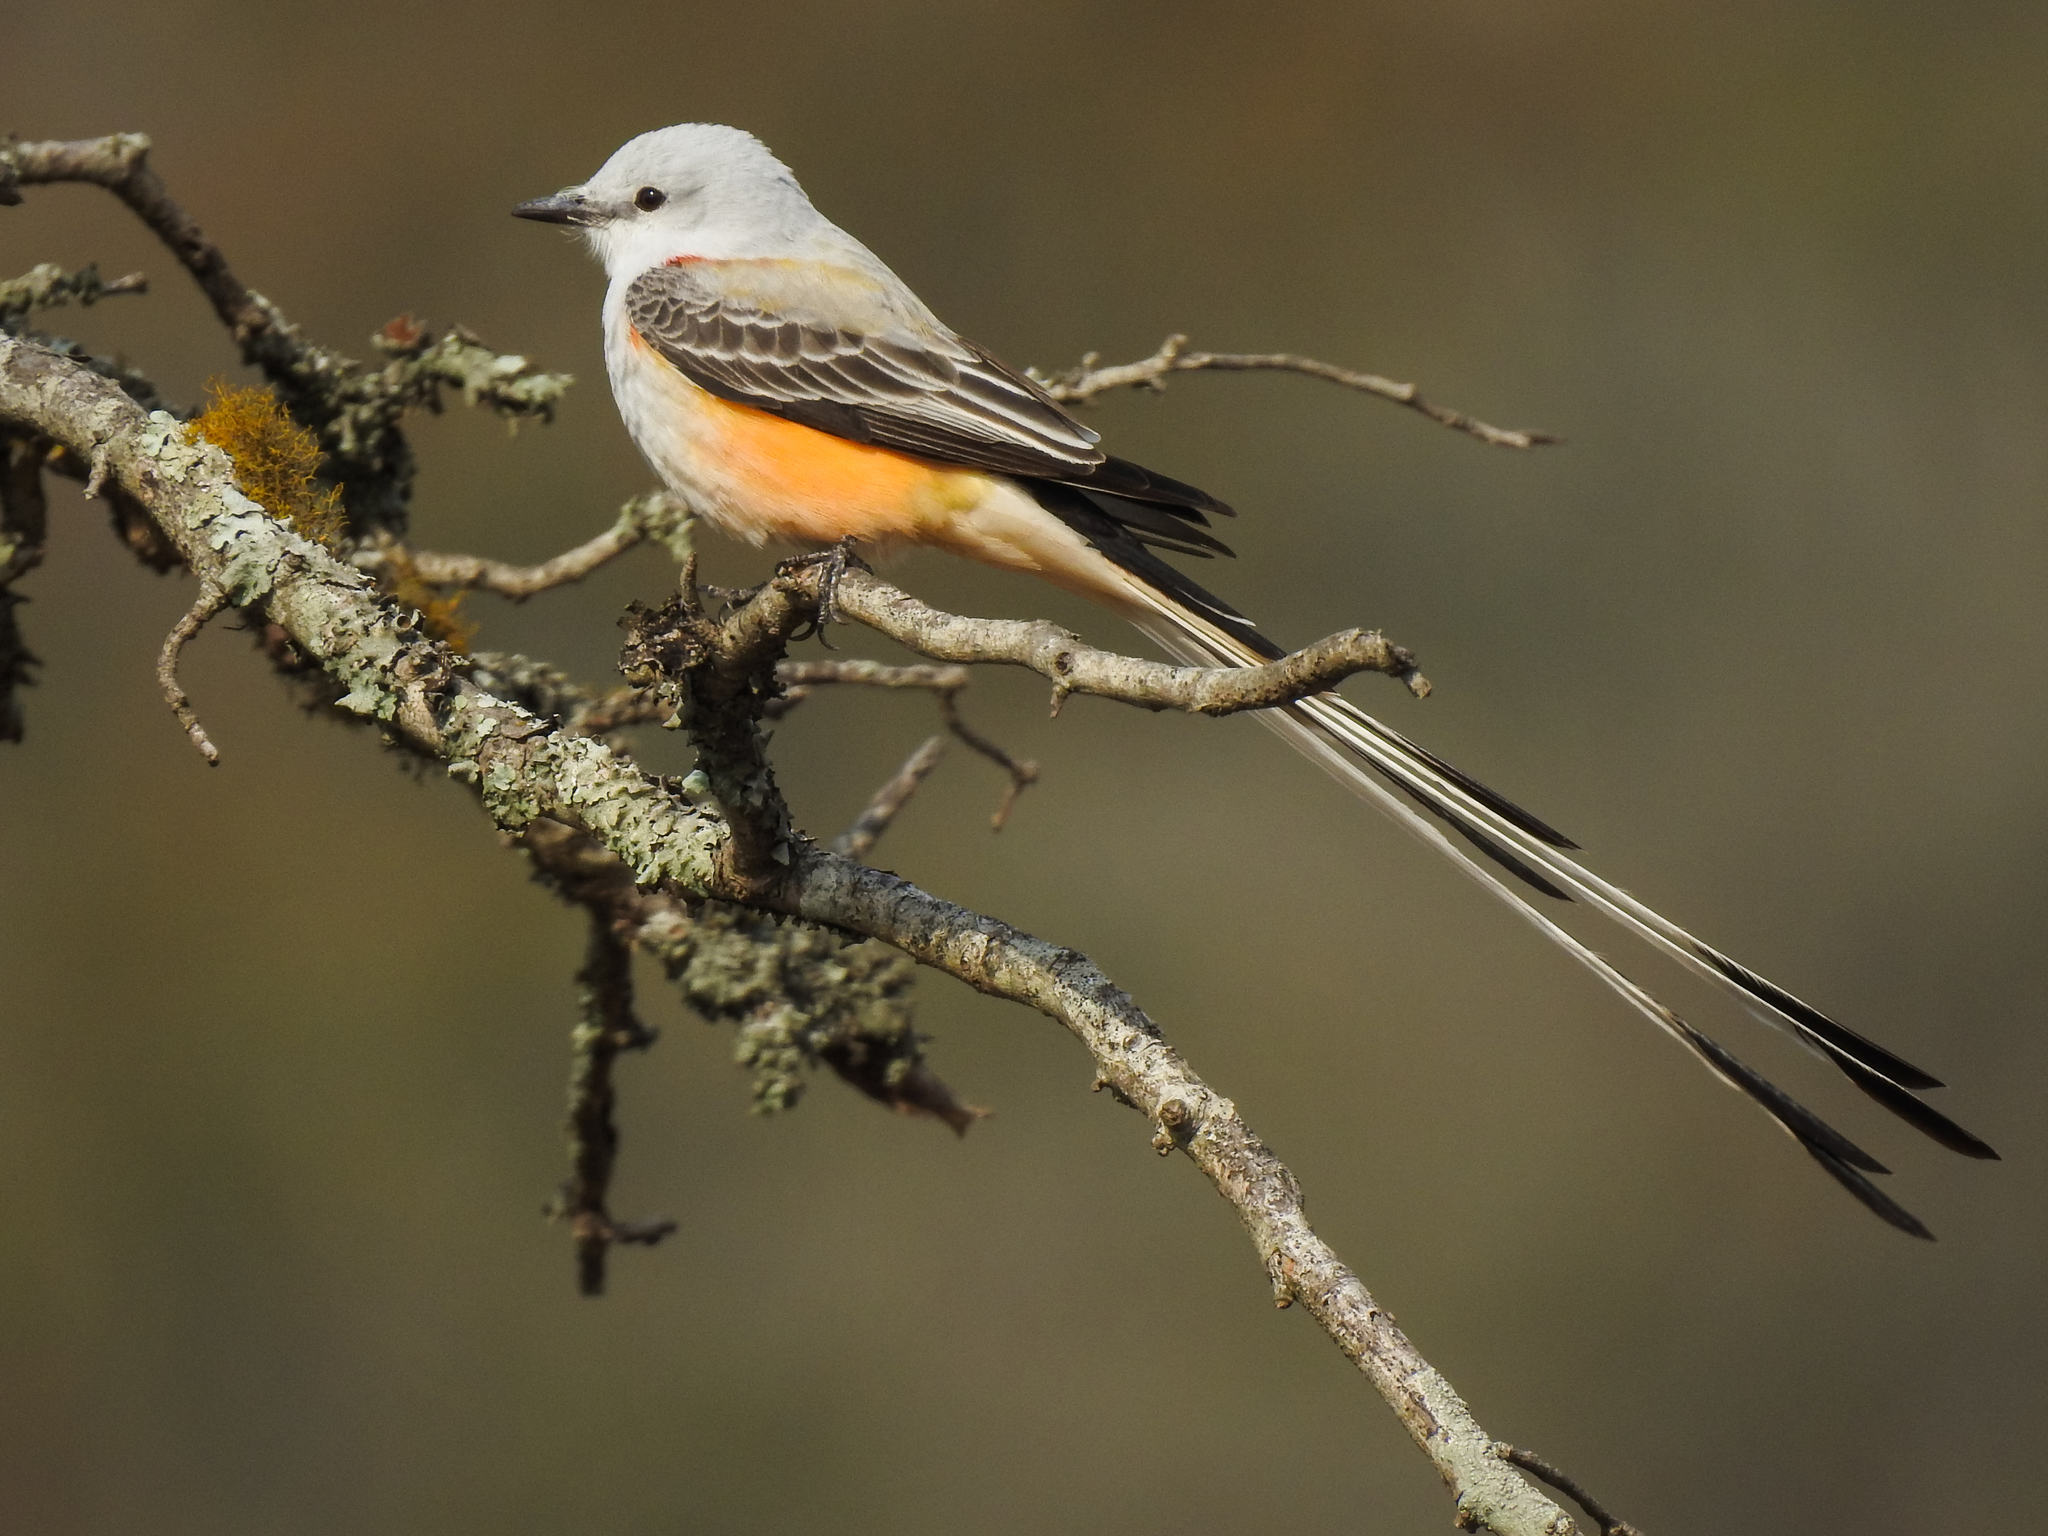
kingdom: Animalia
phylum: Chordata
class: Aves
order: Passeriformes
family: Tyrannidae
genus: Tyrannus
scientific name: Tyrannus forficatus
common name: Scissor-tailed flycatcher
